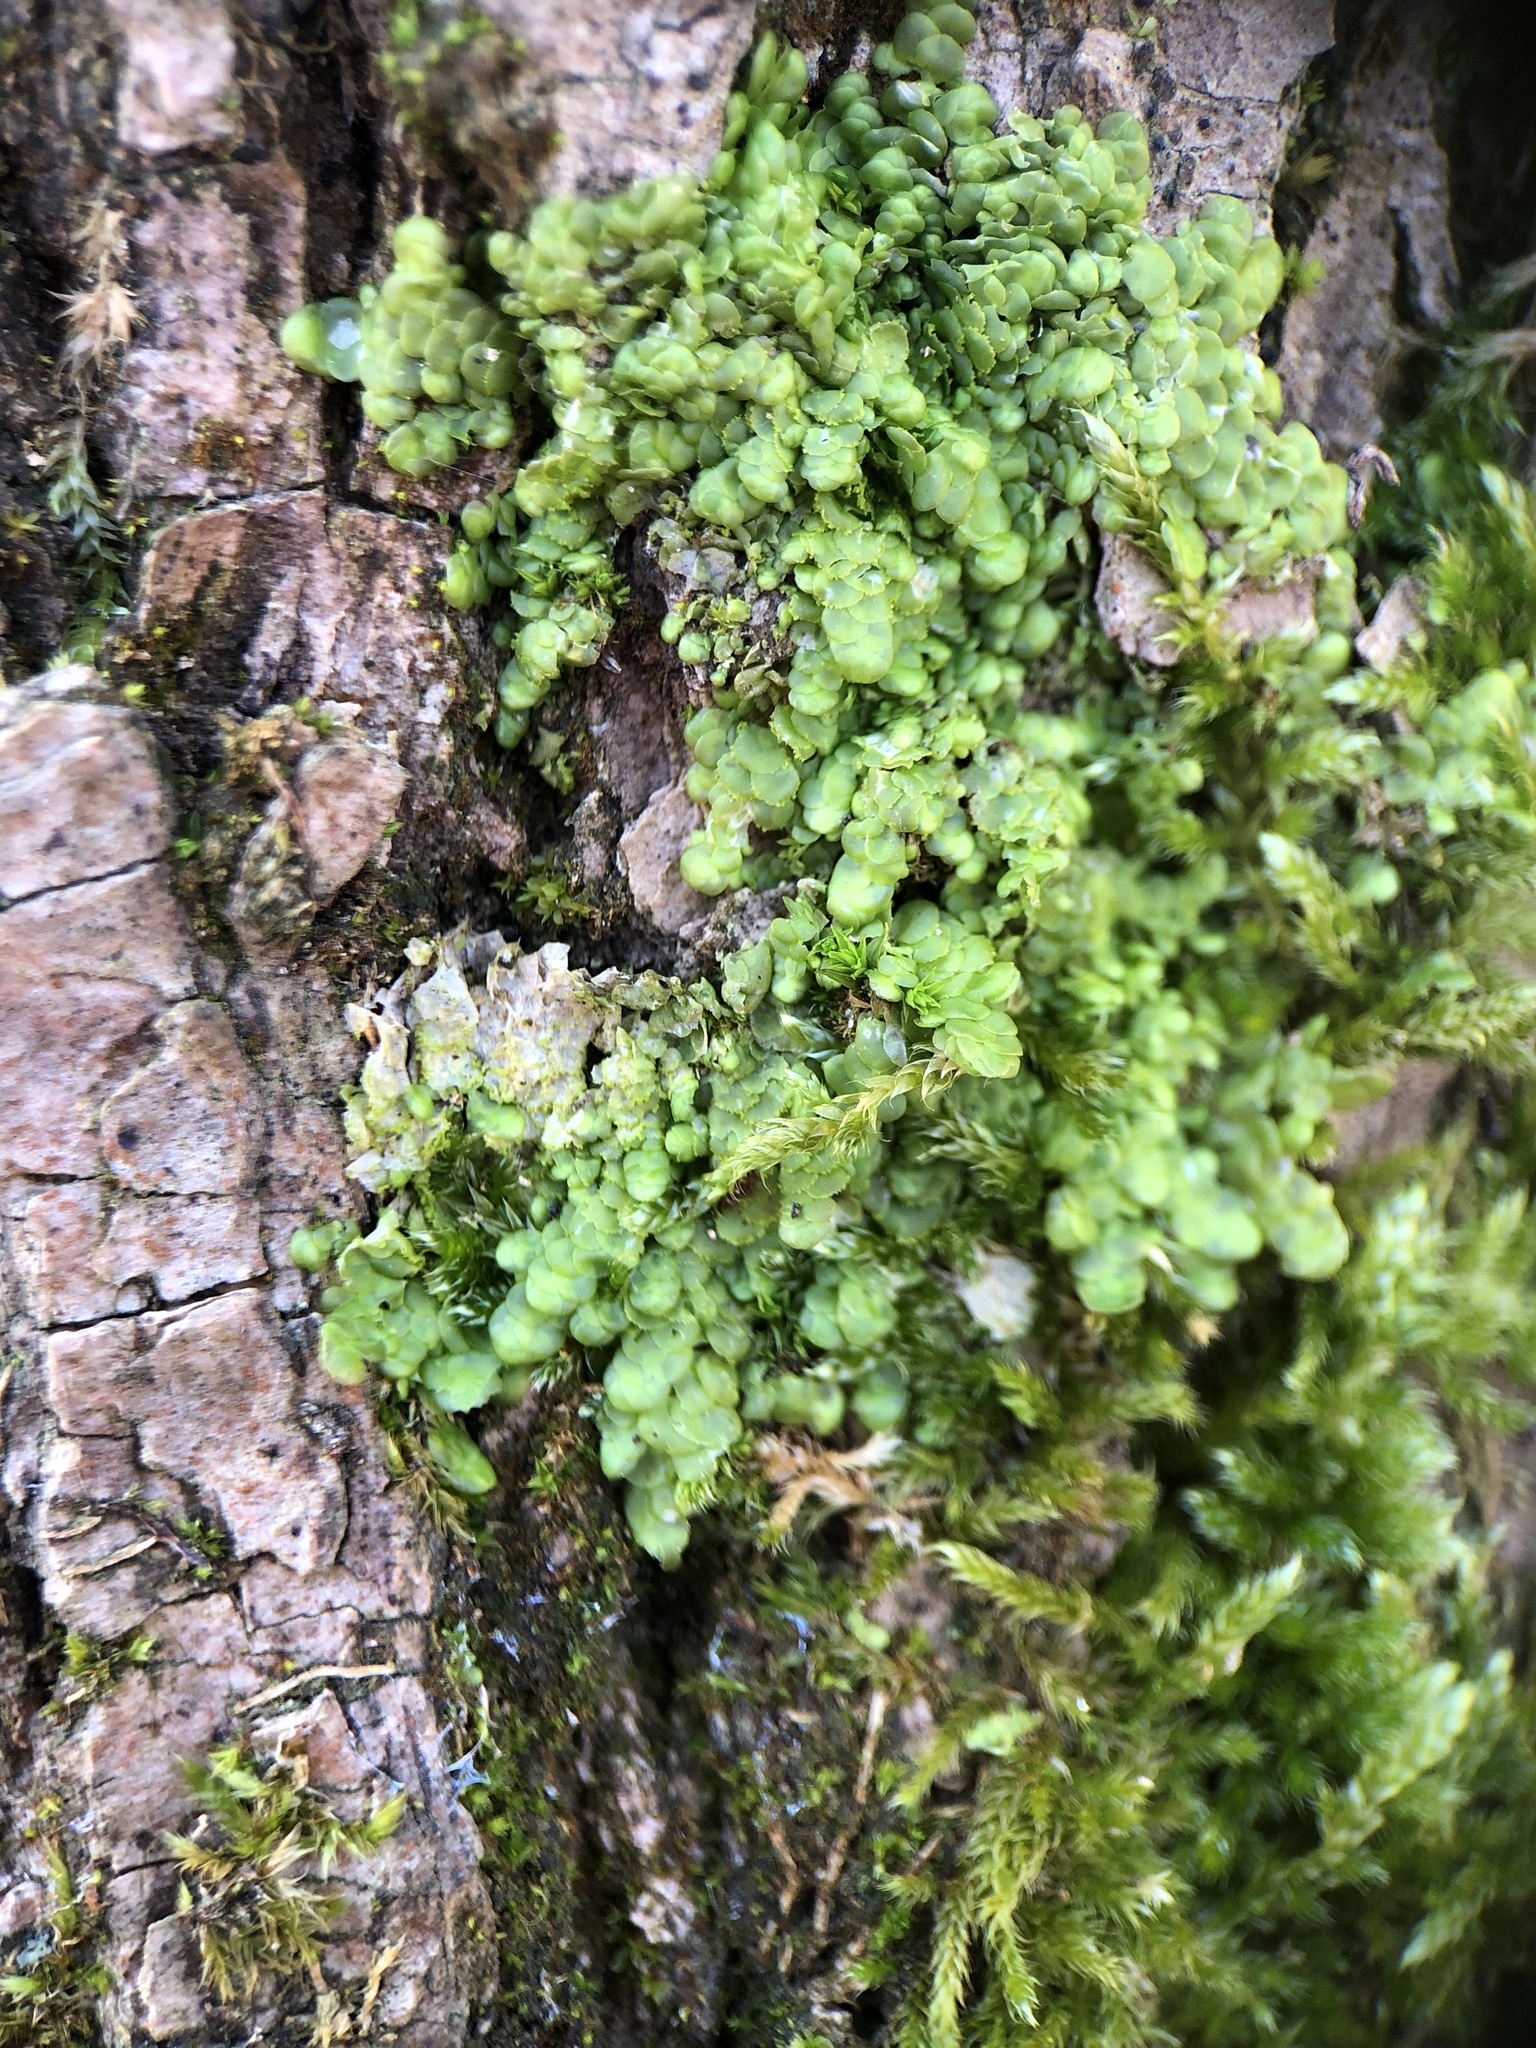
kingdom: Plantae
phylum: Marchantiophyta
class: Jungermanniopsida
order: Porellales
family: Radulaceae
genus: Radula
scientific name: Radula complanata
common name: Flat-leaved scalewort
